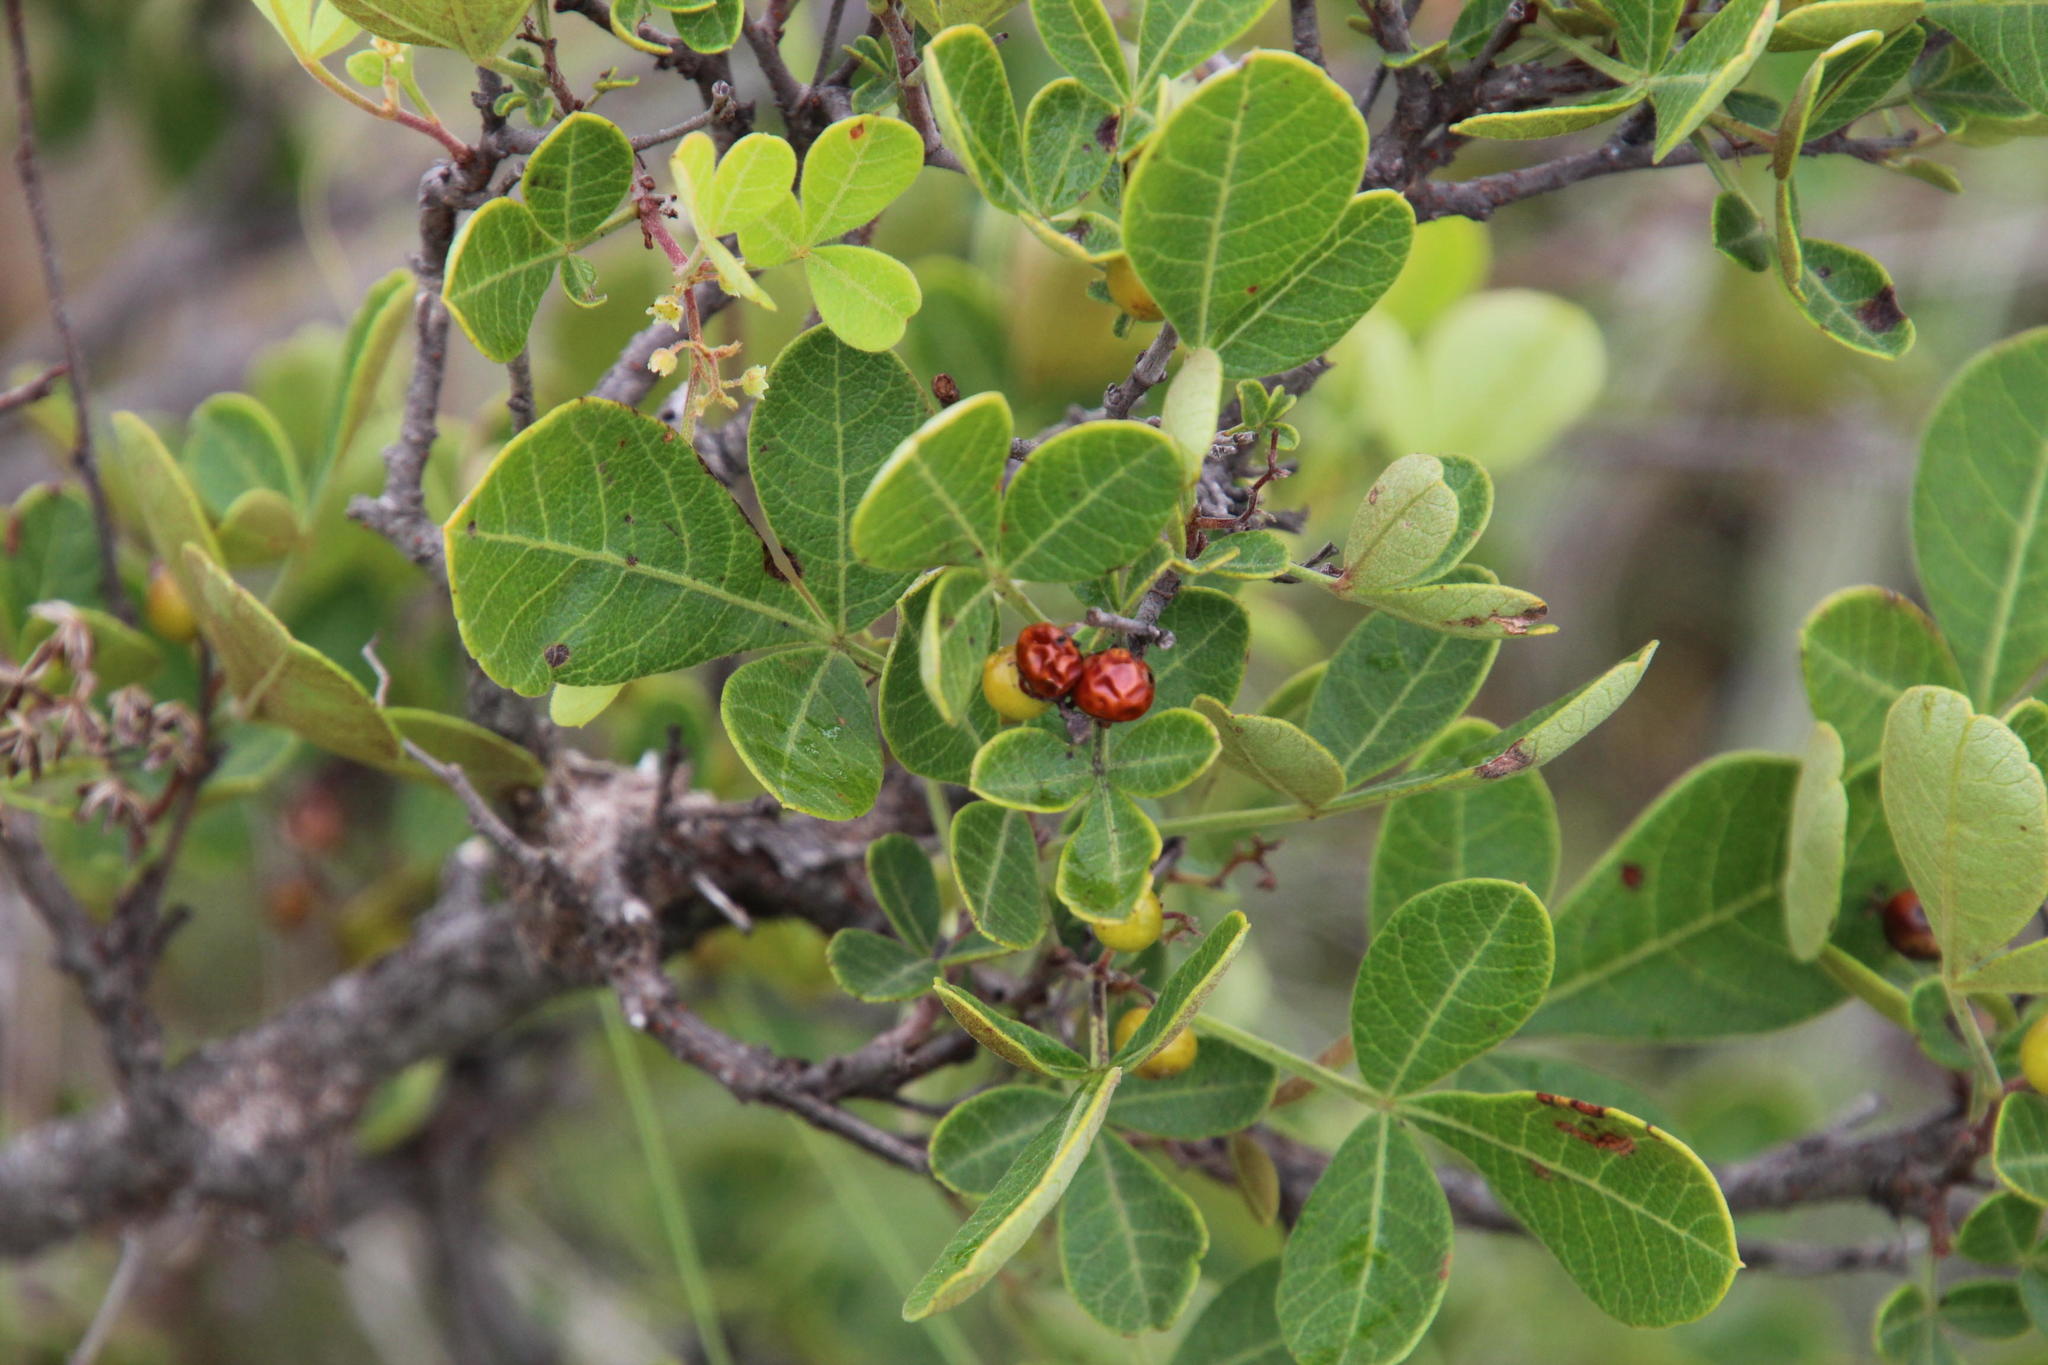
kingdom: Plantae
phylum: Tracheophyta
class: Magnoliopsida
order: Sapindales
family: Anacardiaceae
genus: Searsia
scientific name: Searsia divaricata
